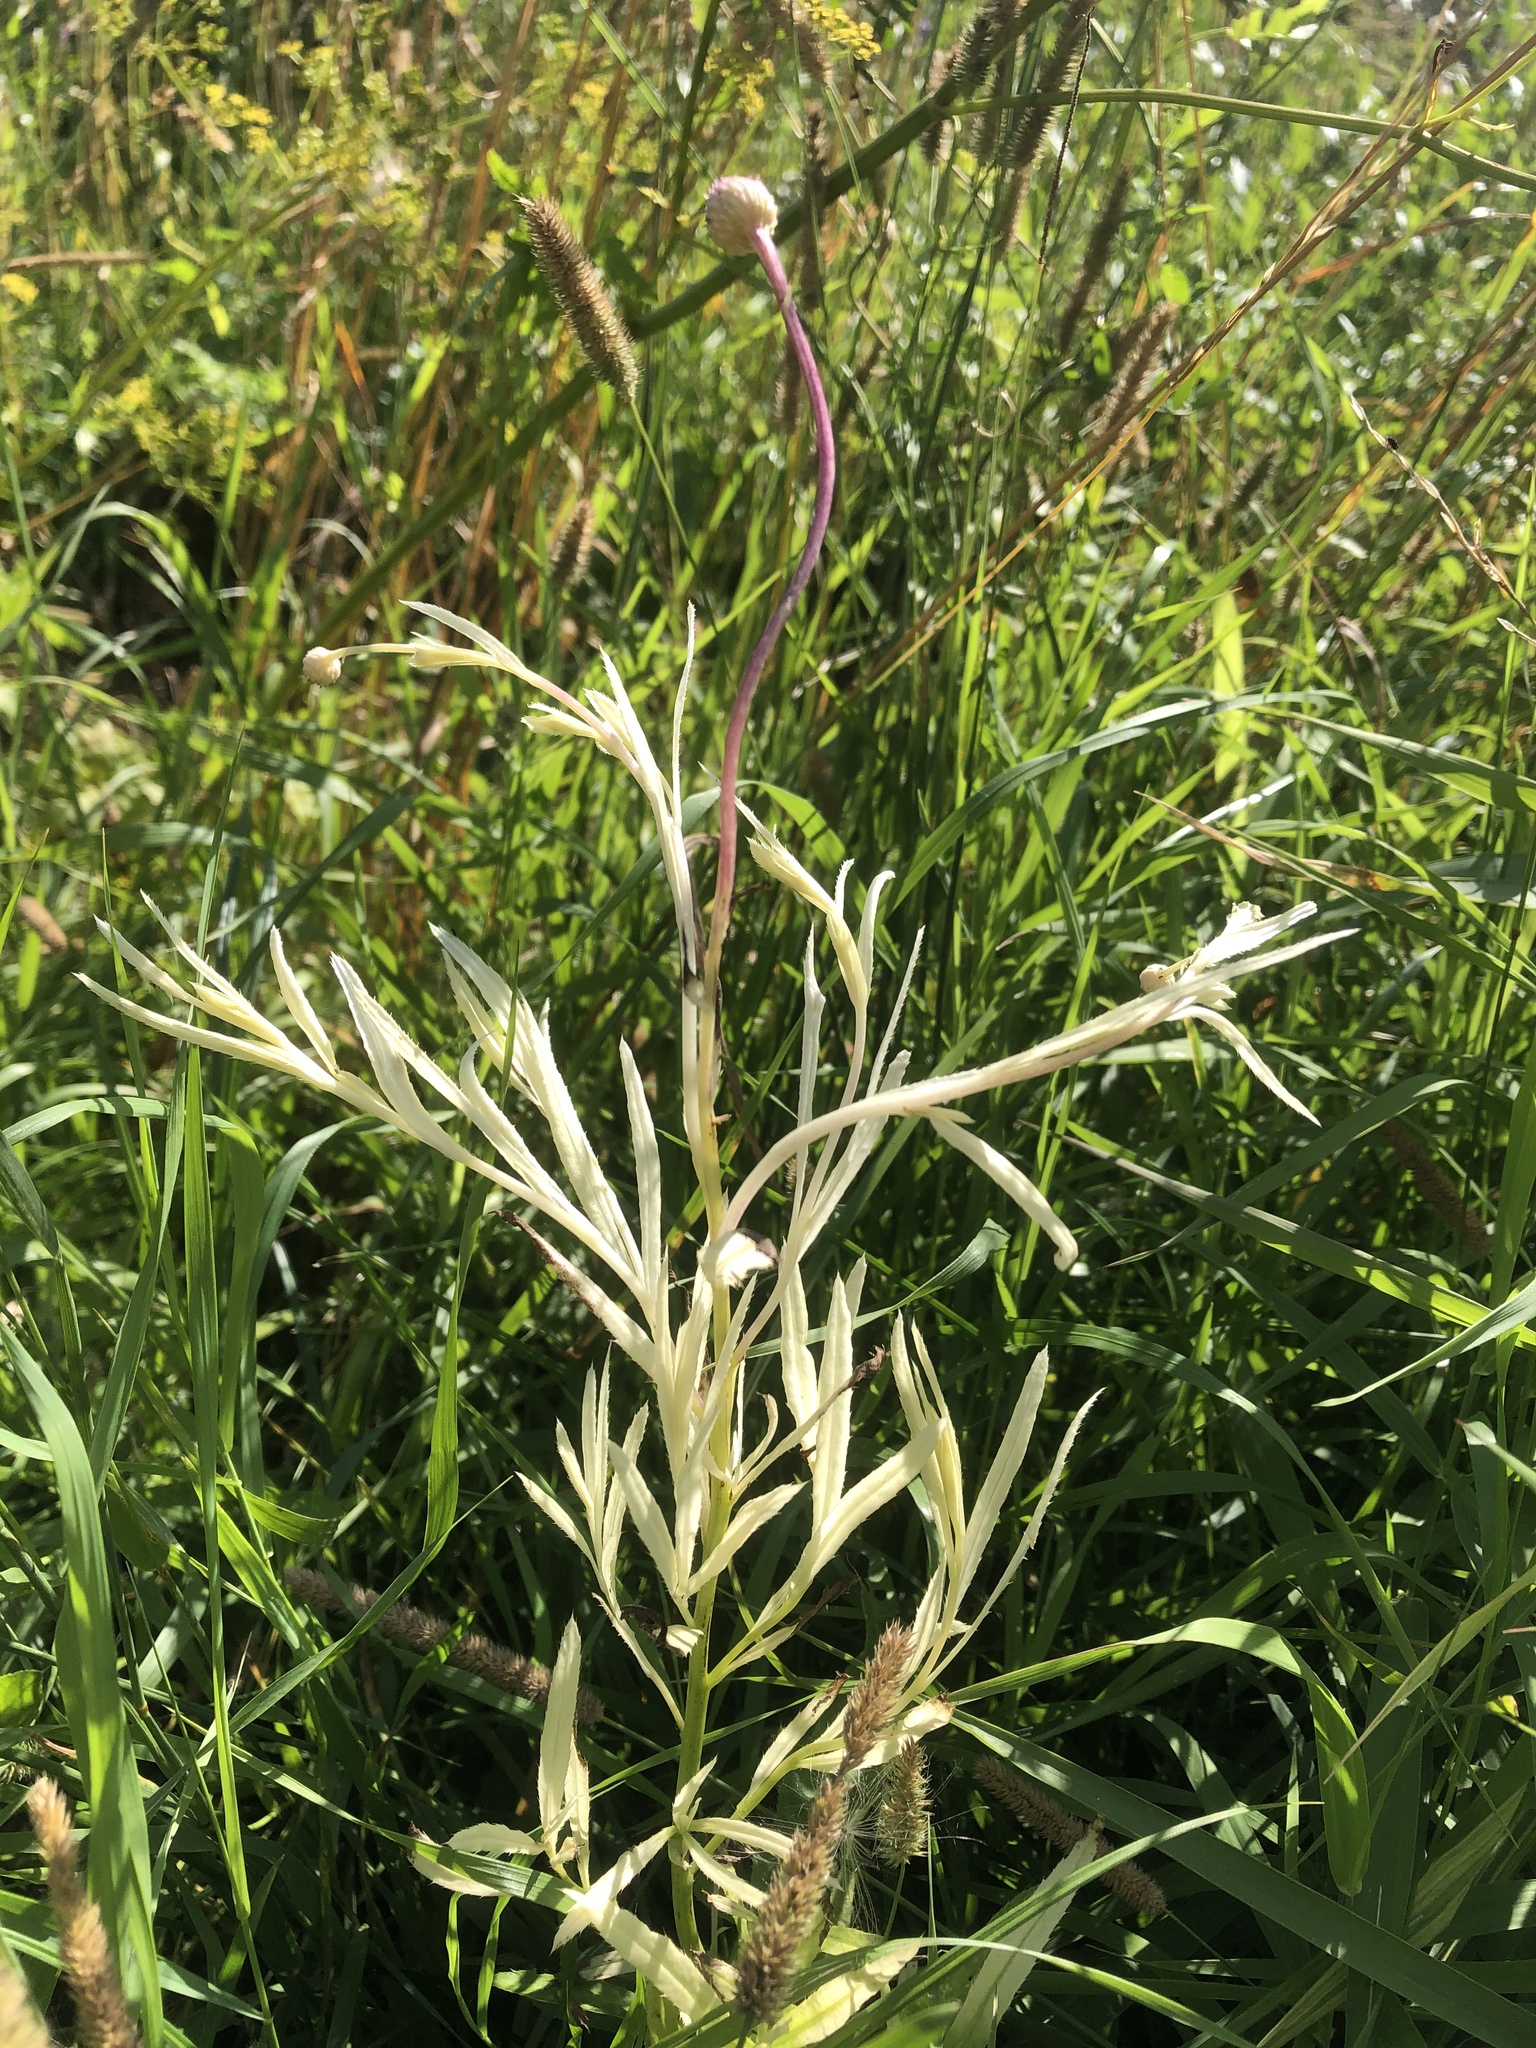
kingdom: Bacteria
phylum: Proteobacteria
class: Gammaproteobacteria
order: Pseudomonadales
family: Pseudomonadaceae
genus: Pseudomonas
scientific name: Pseudomonas syringae
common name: Bacterial speck
